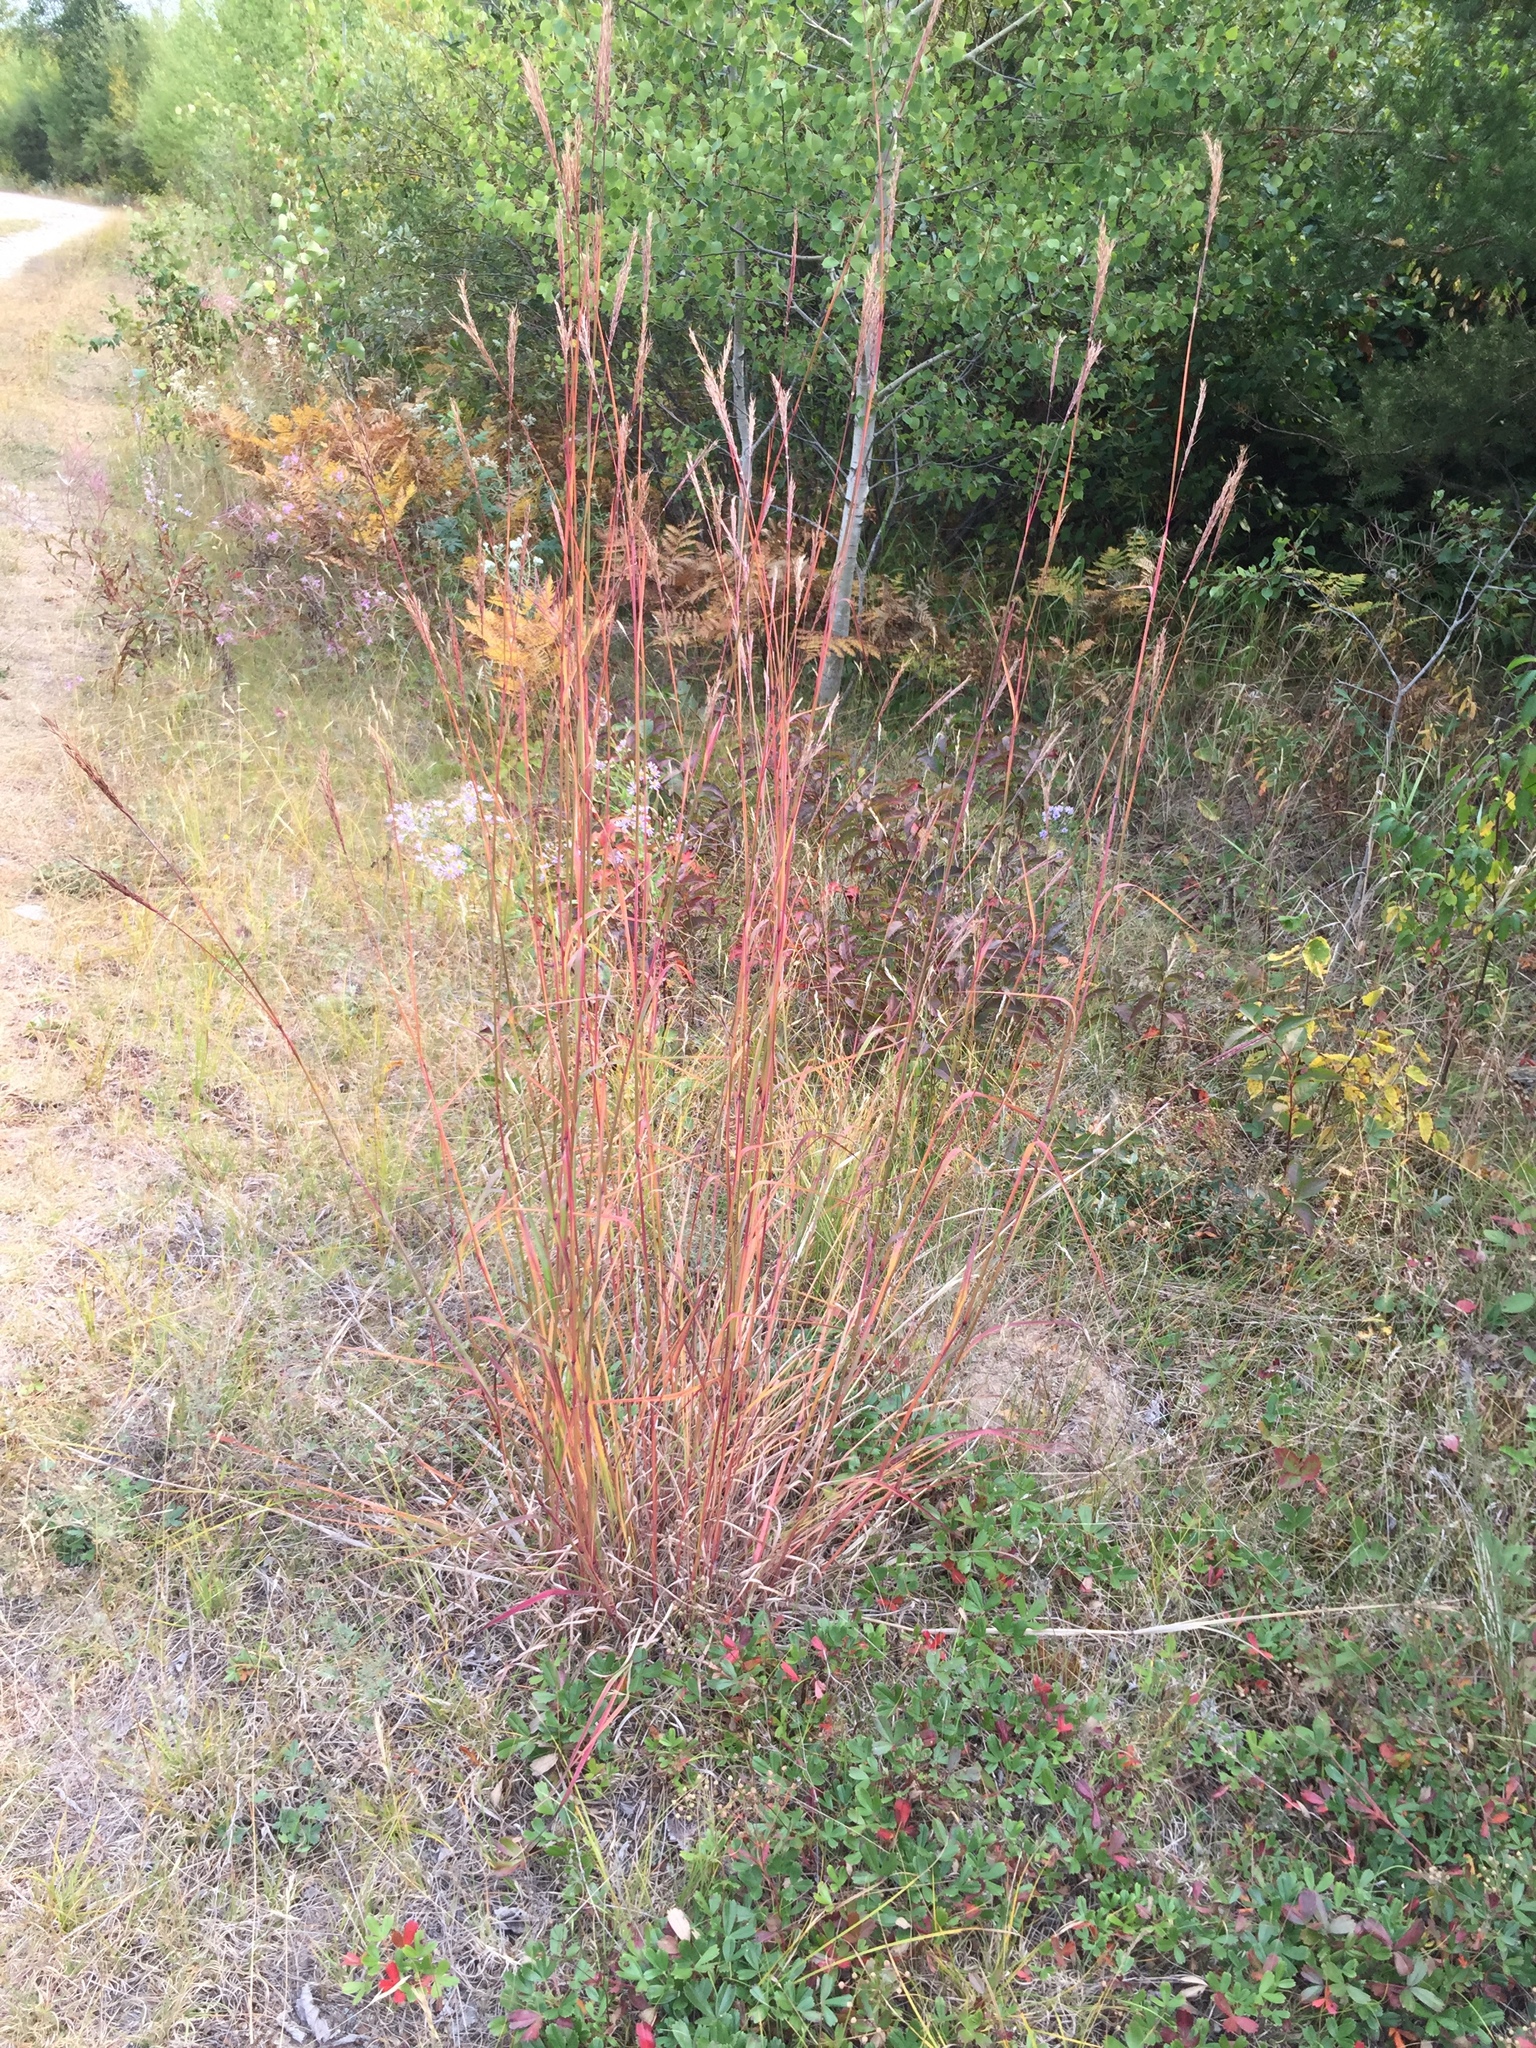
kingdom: Plantae
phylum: Tracheophyta
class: Liliopsida
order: Poales
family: Poaceae
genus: Andropogon
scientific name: Andropogon gerardi
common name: Big bluestem
